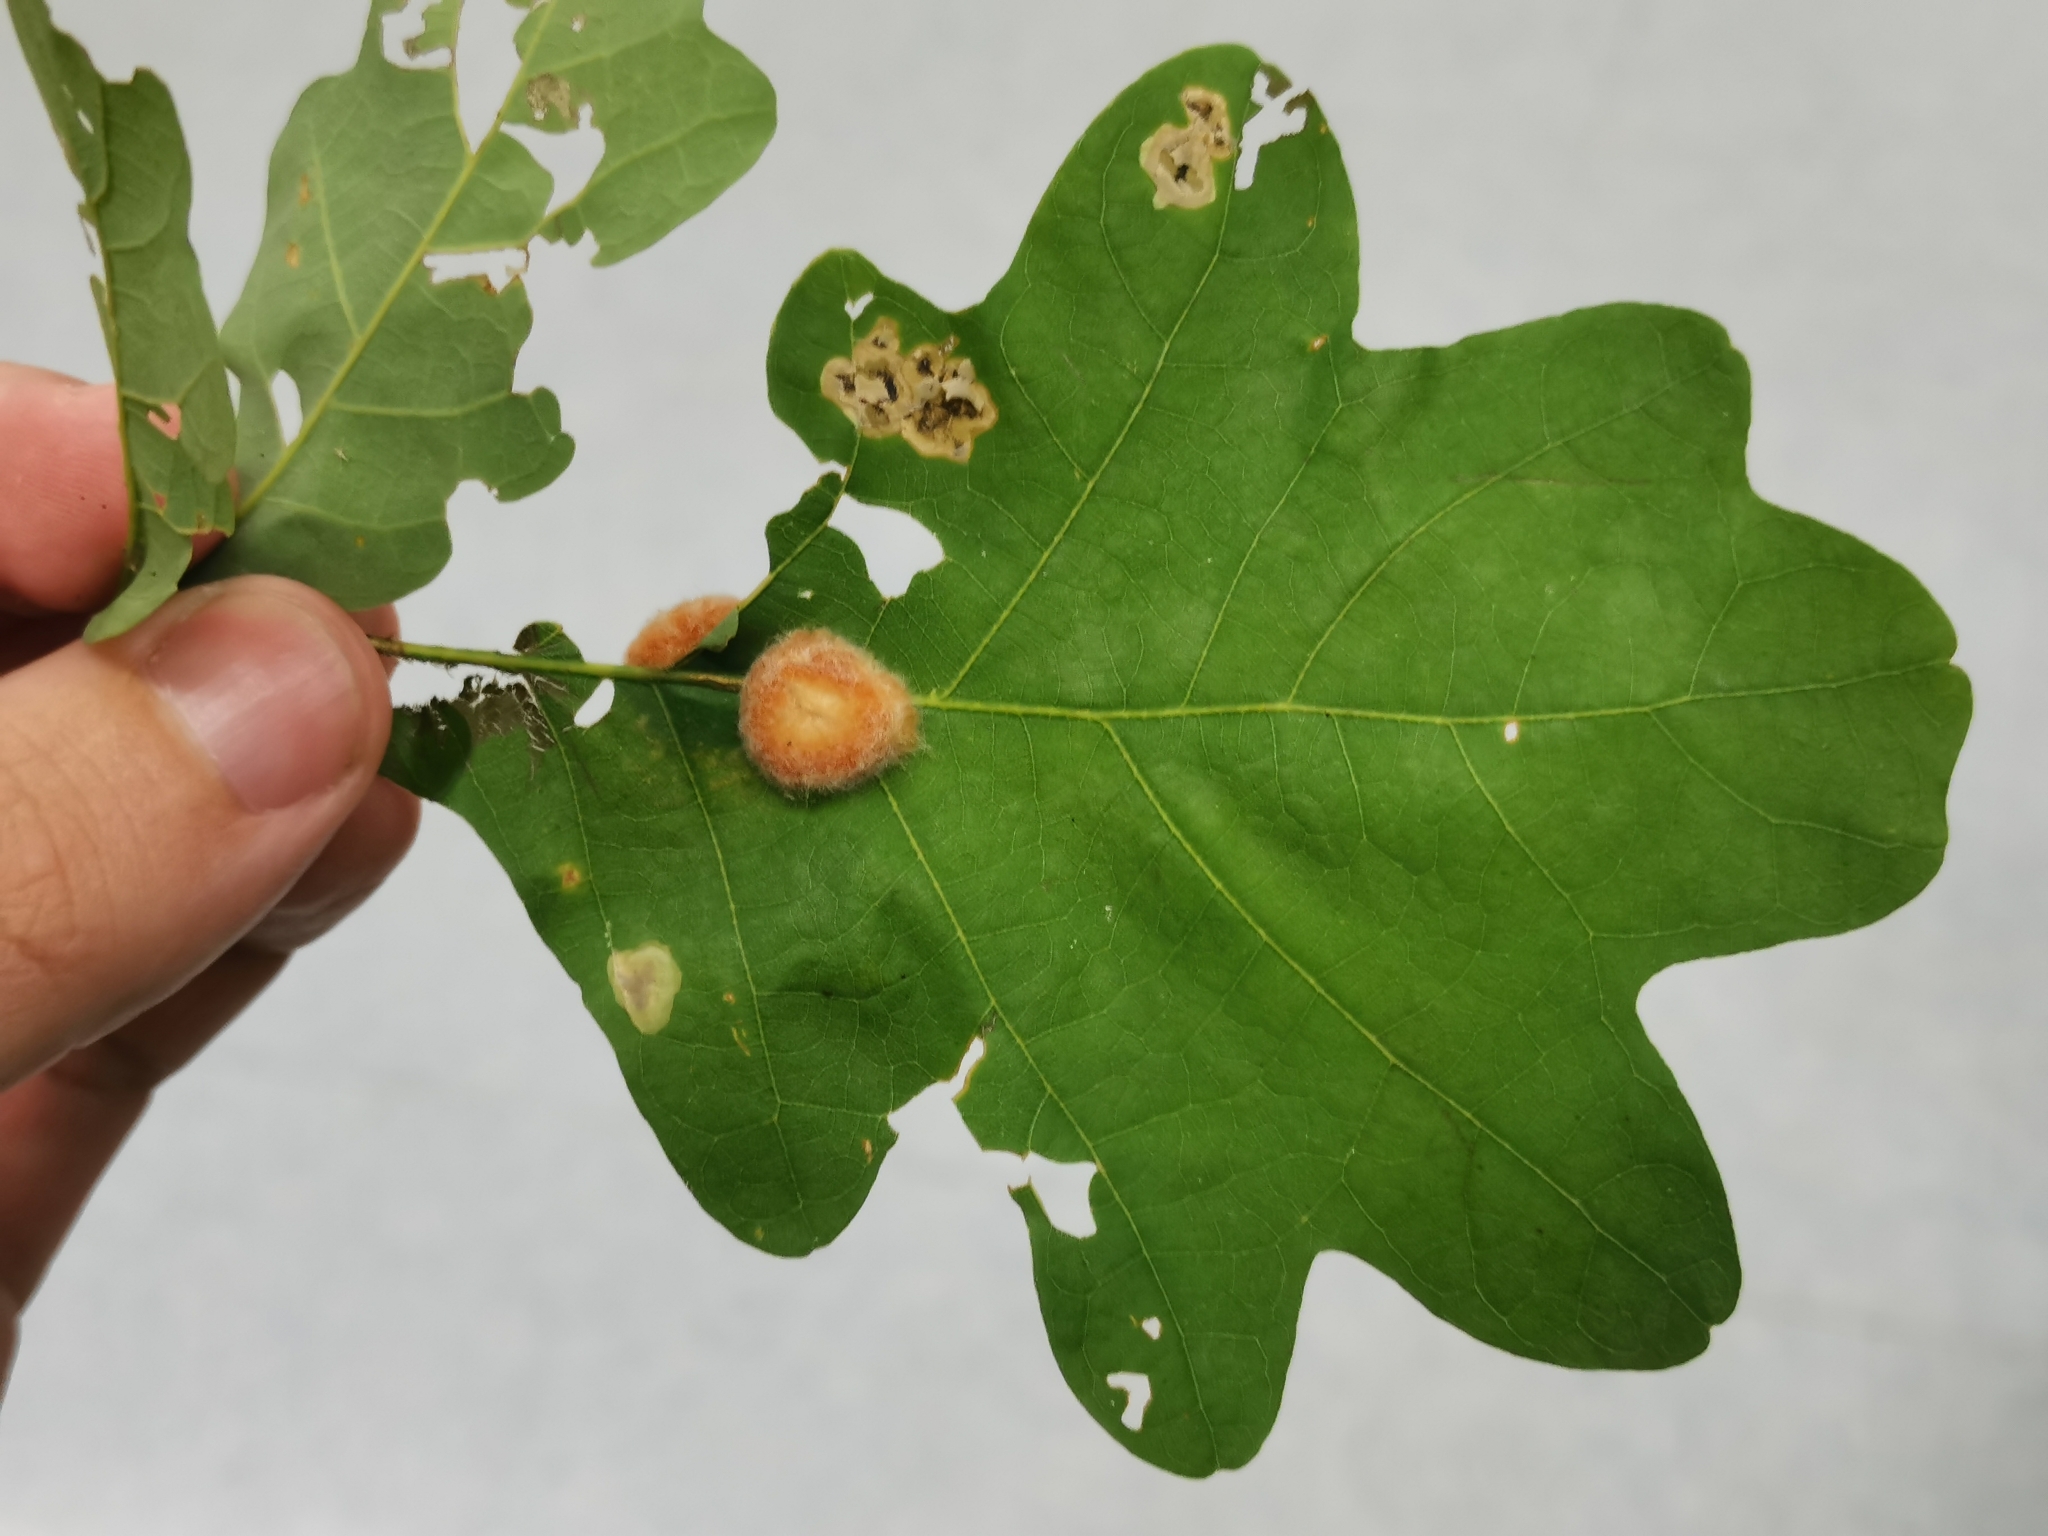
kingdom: Animalia
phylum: Arthropoda
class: Insecta
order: Hymenoptera
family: Cynipidae
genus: Andricus
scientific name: Andricus quercusflocci
